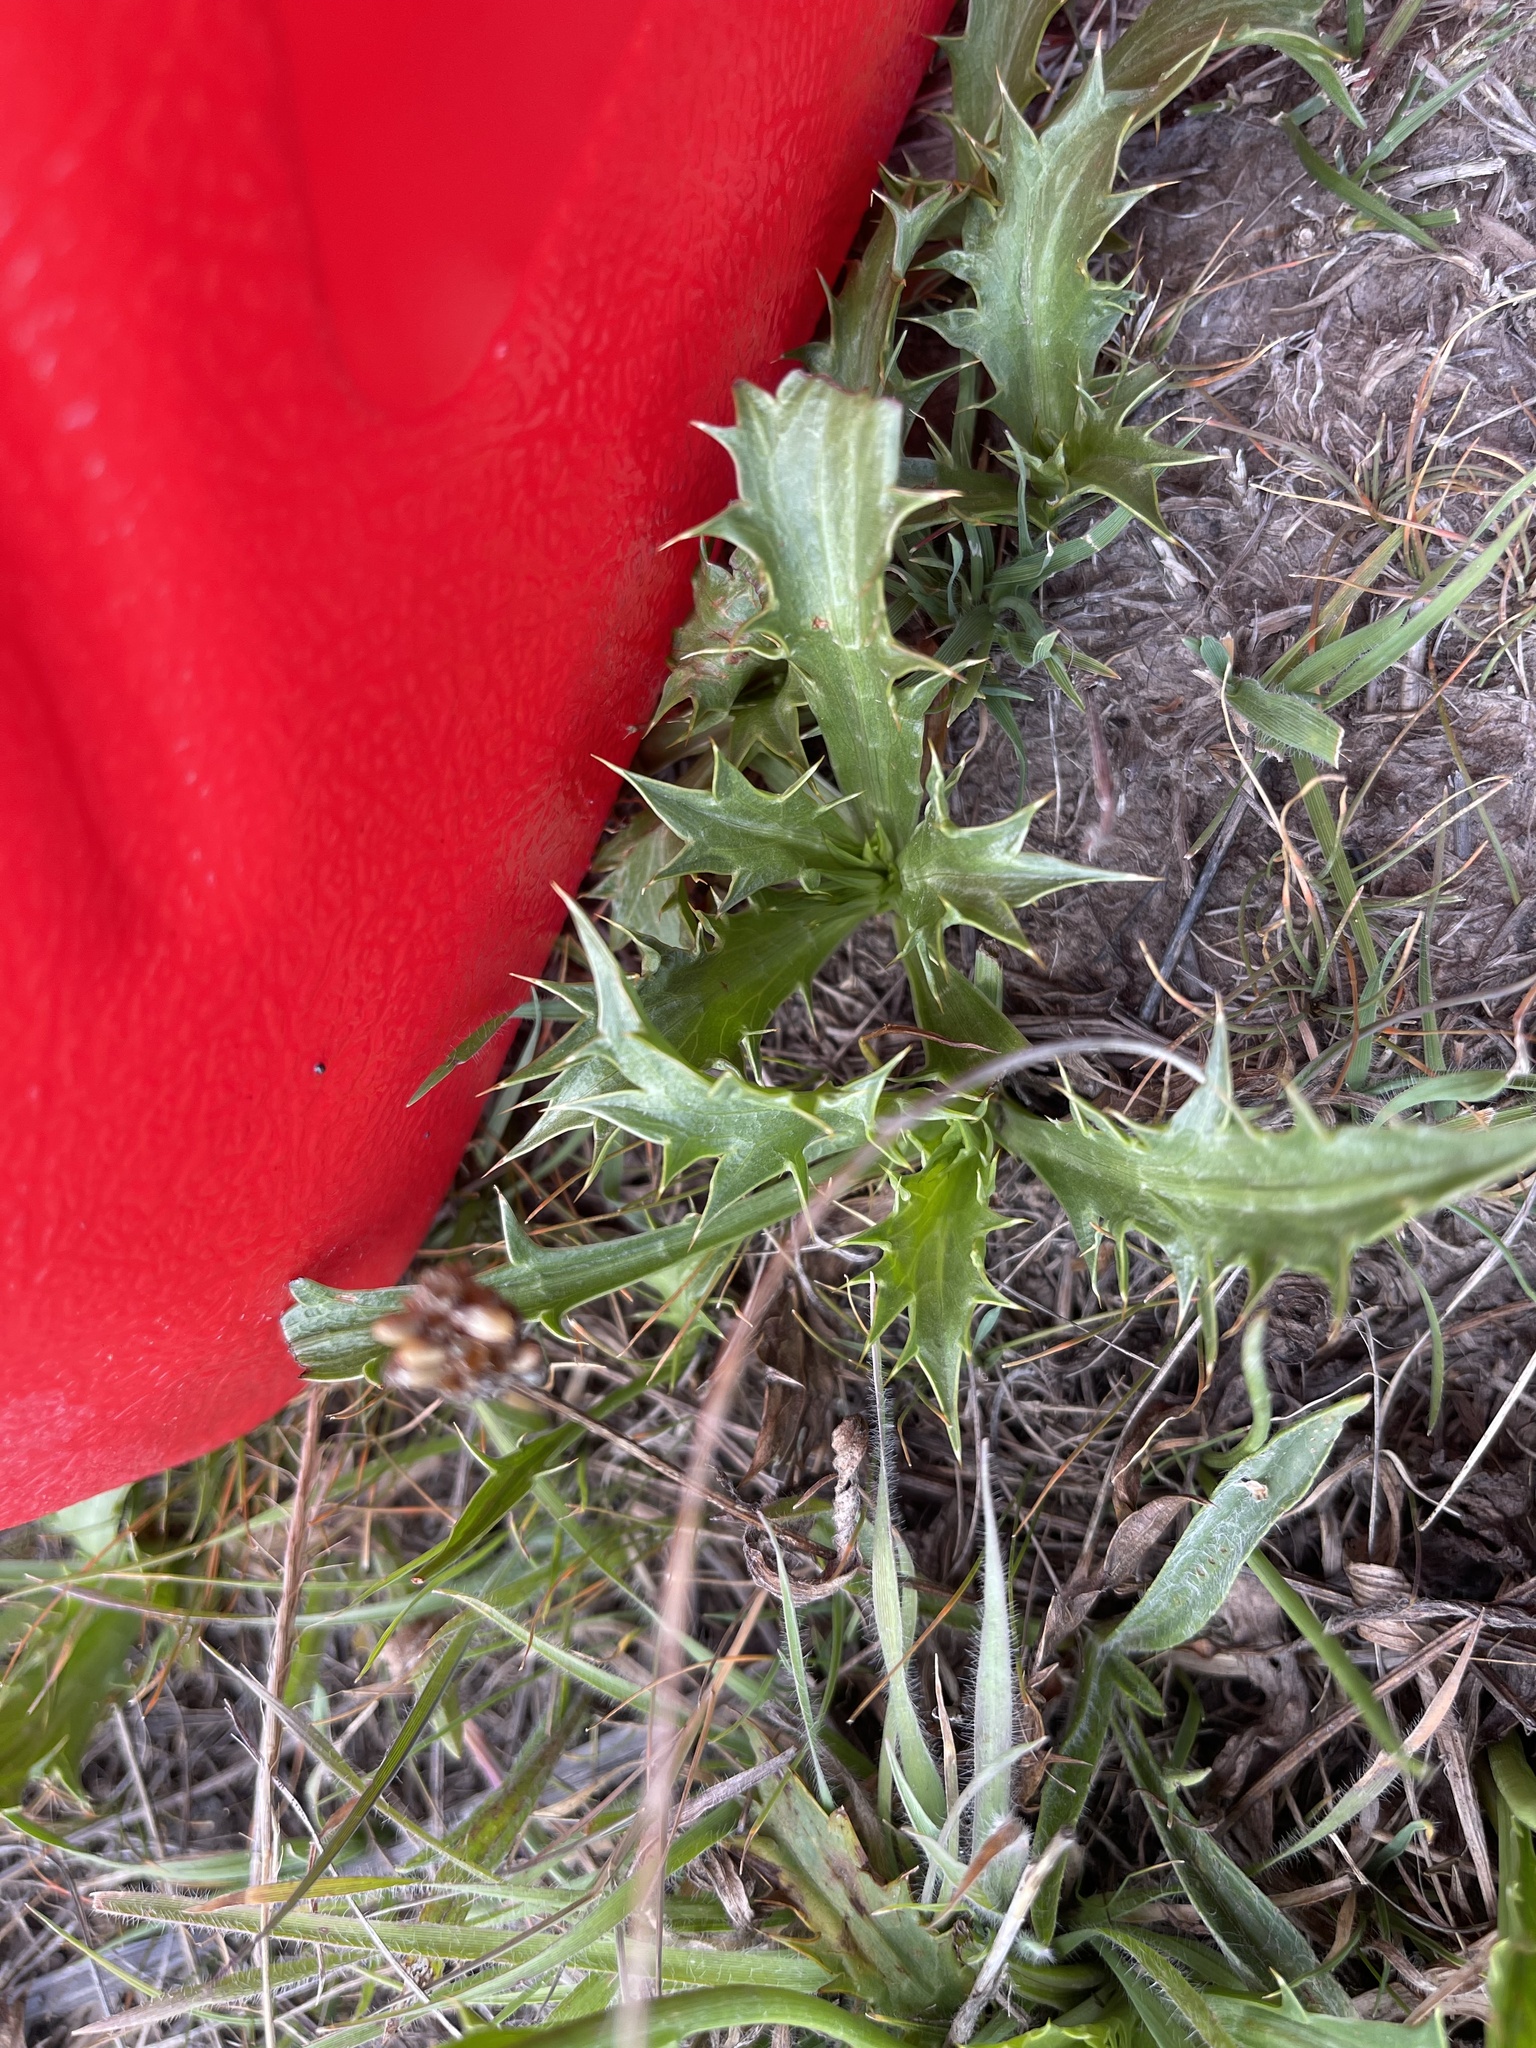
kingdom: Plantae
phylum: Tracheophyta
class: Magnoliopsida
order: Apiales
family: Apiaceae
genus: Eryngium
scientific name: Eryngium vesiculosum
